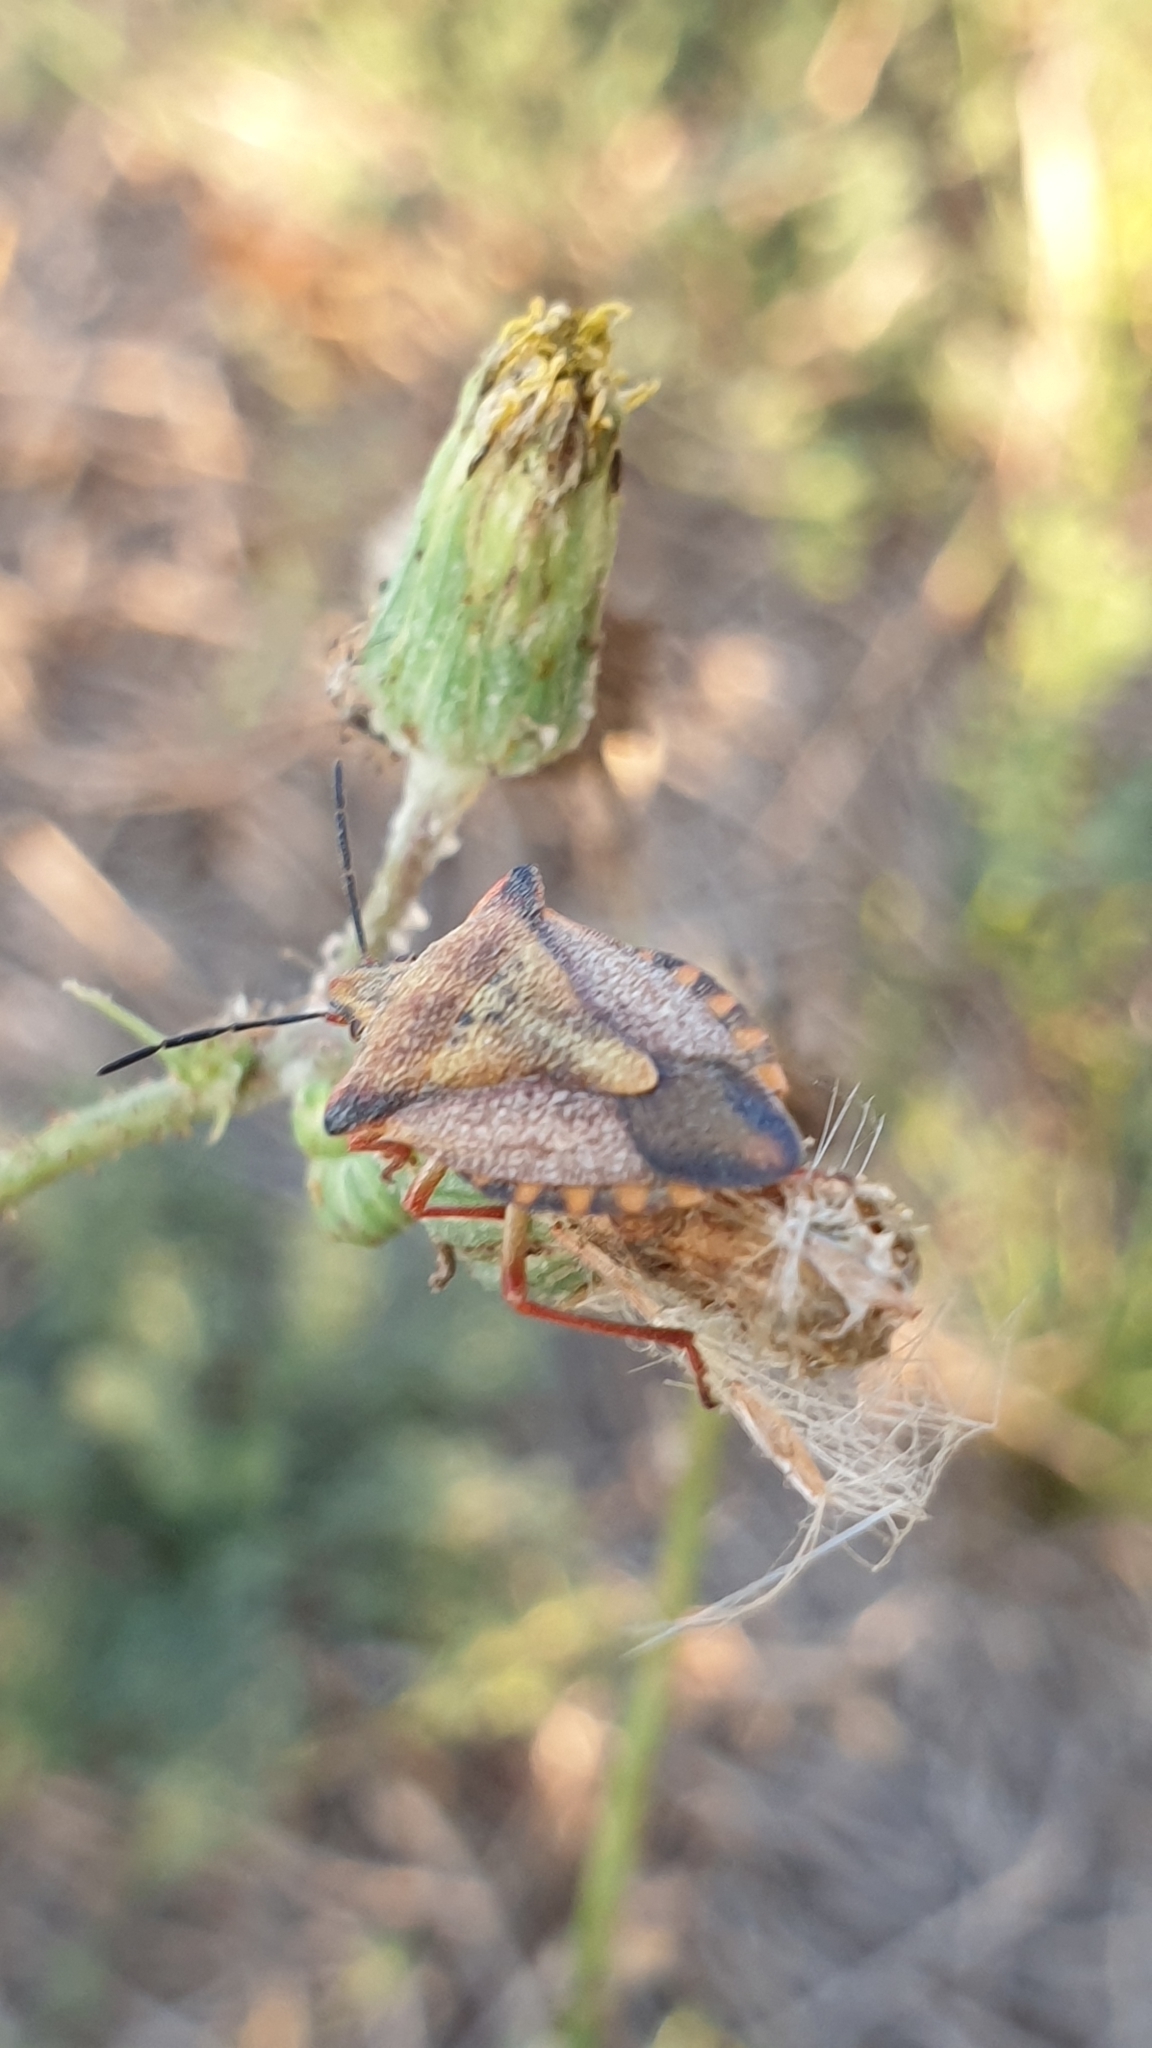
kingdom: Animalia
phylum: Arthropoda
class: Insecta
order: Hemiptera
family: Pentatomidae
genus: Carpocoris
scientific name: Carpocoris mediterraneus
